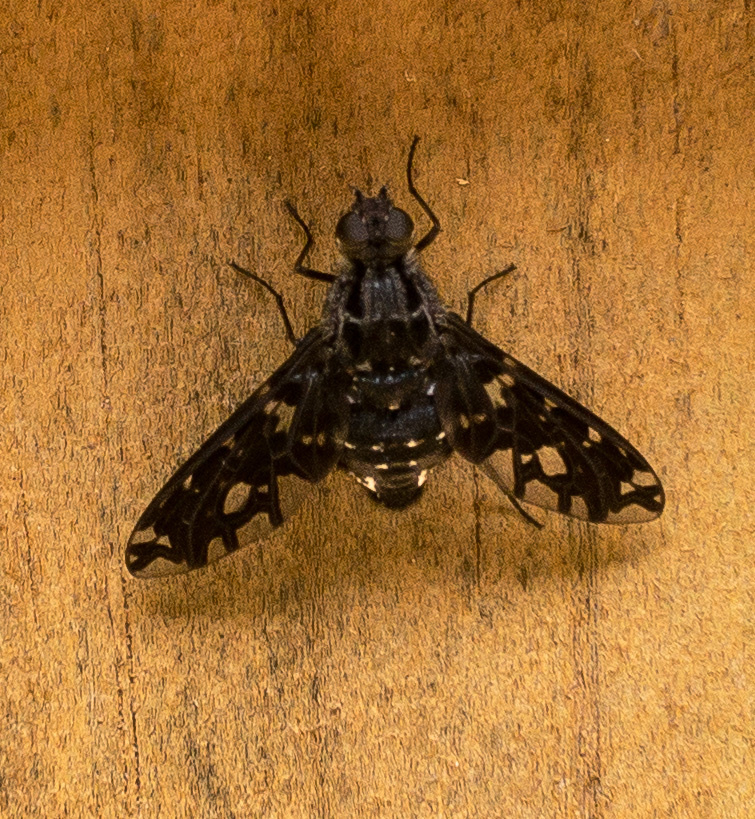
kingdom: Animalia
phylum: Arthropoda
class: Insecta
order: Diptera
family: Bombyliidae
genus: Xenox
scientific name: Xenox tigrinus
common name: Tiger bee fly
